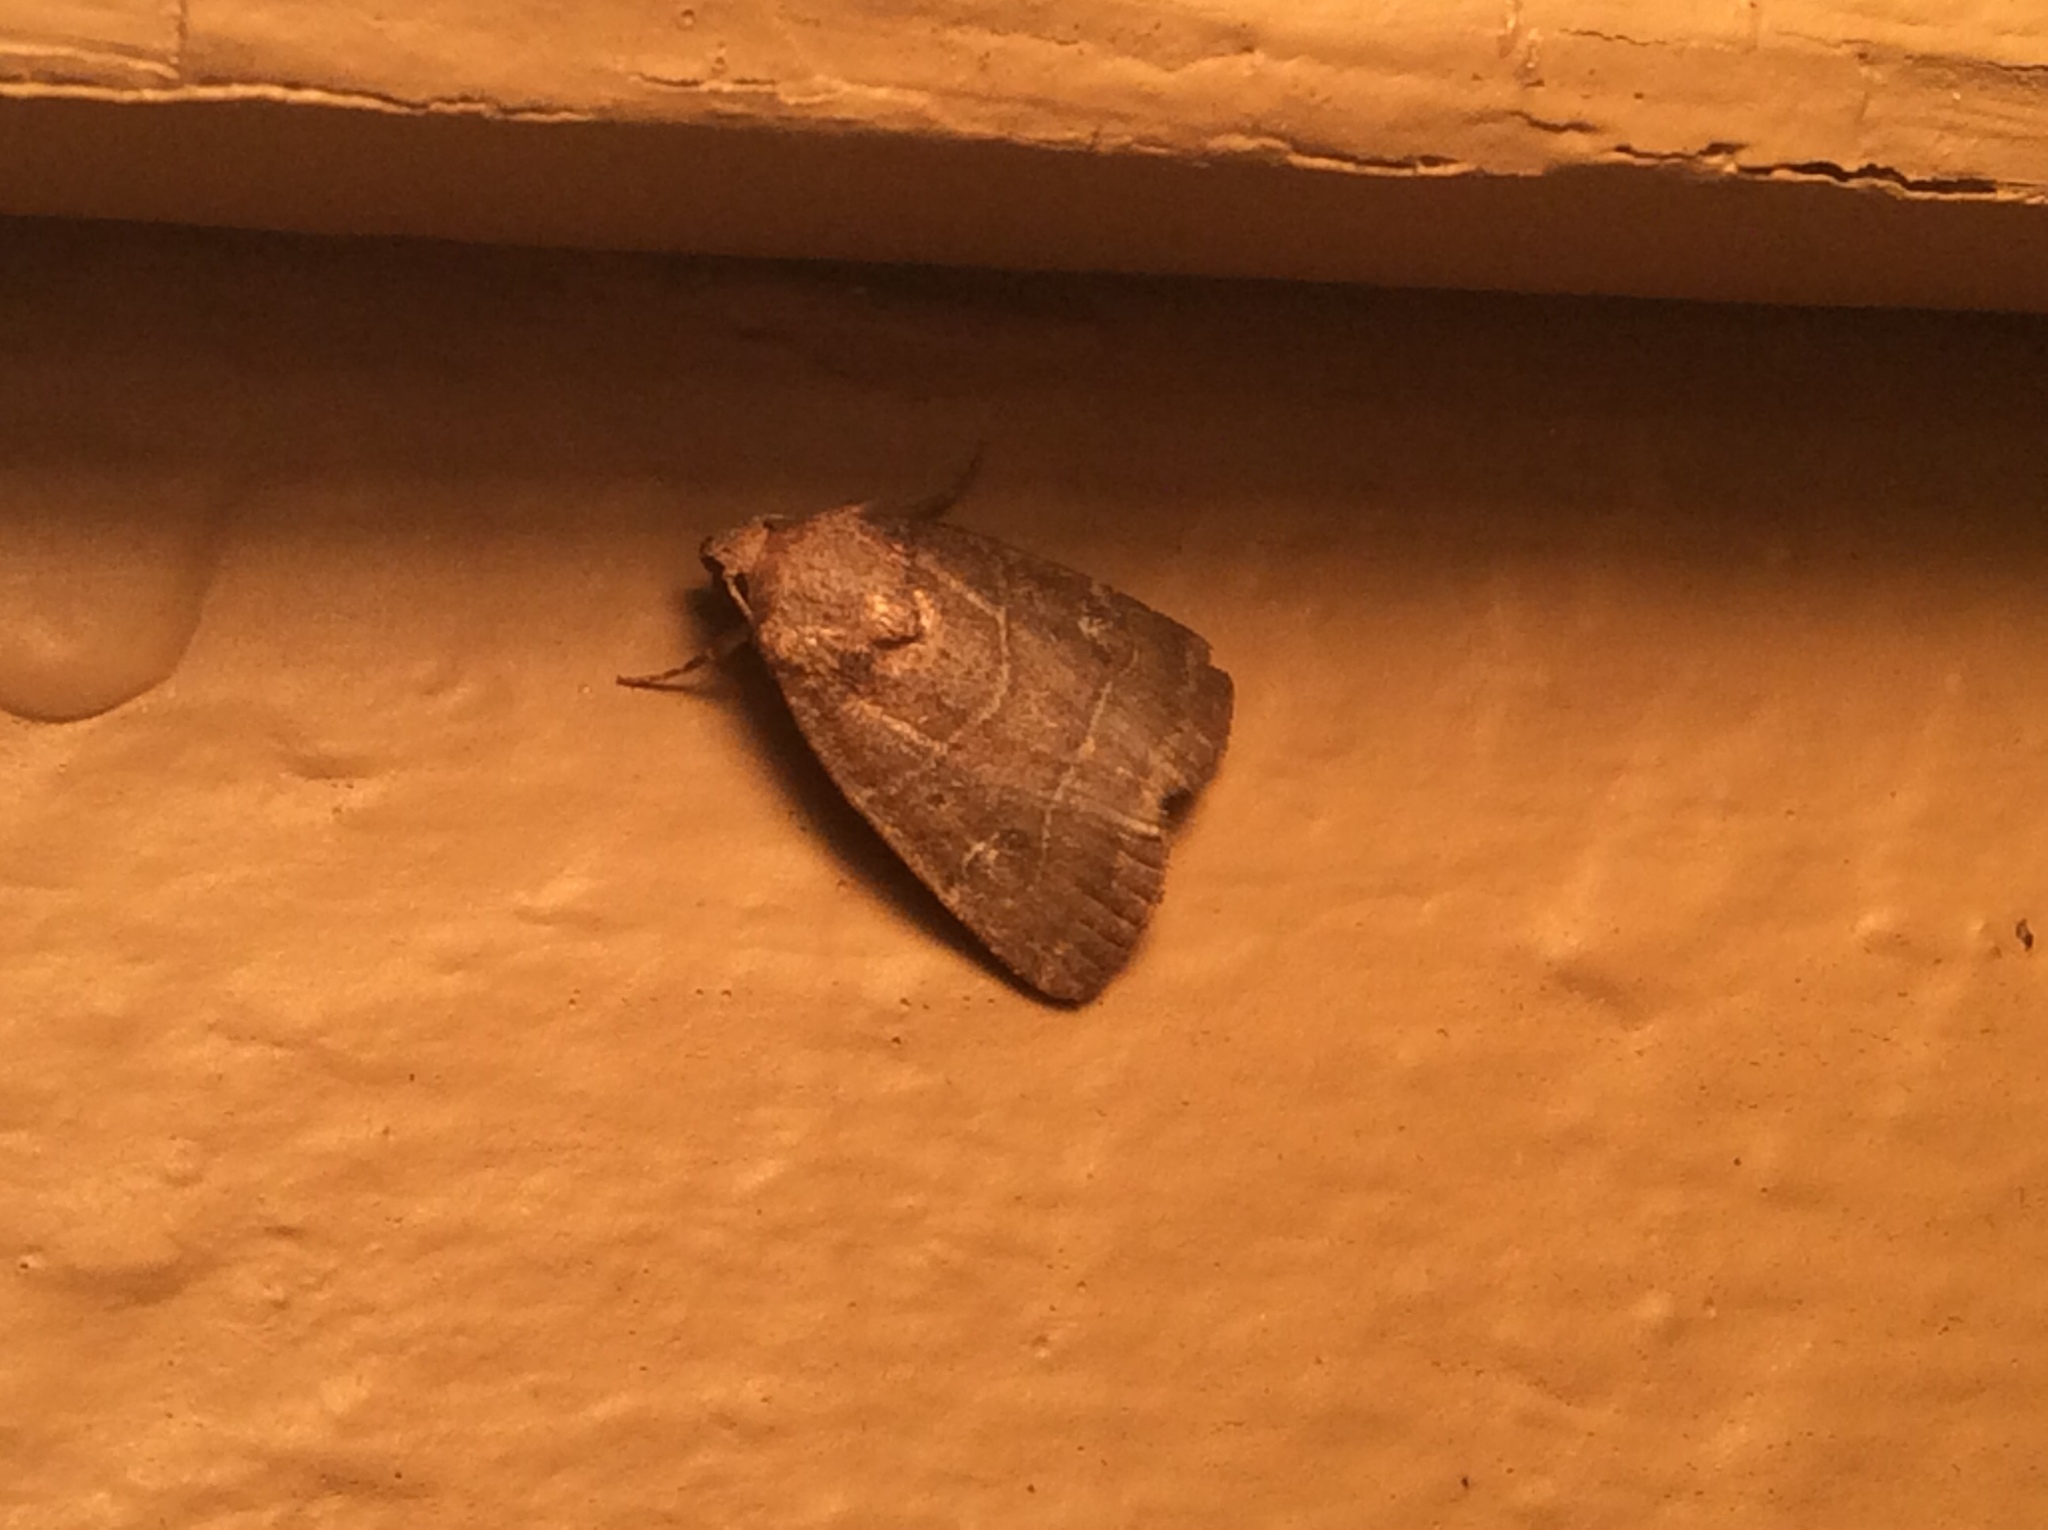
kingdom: Animalia
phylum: Arthropoda
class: Insecta
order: Lepidoptera
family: Noctuidae
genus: Elaphria
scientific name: Elaphria grata
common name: Grateful midget moth
